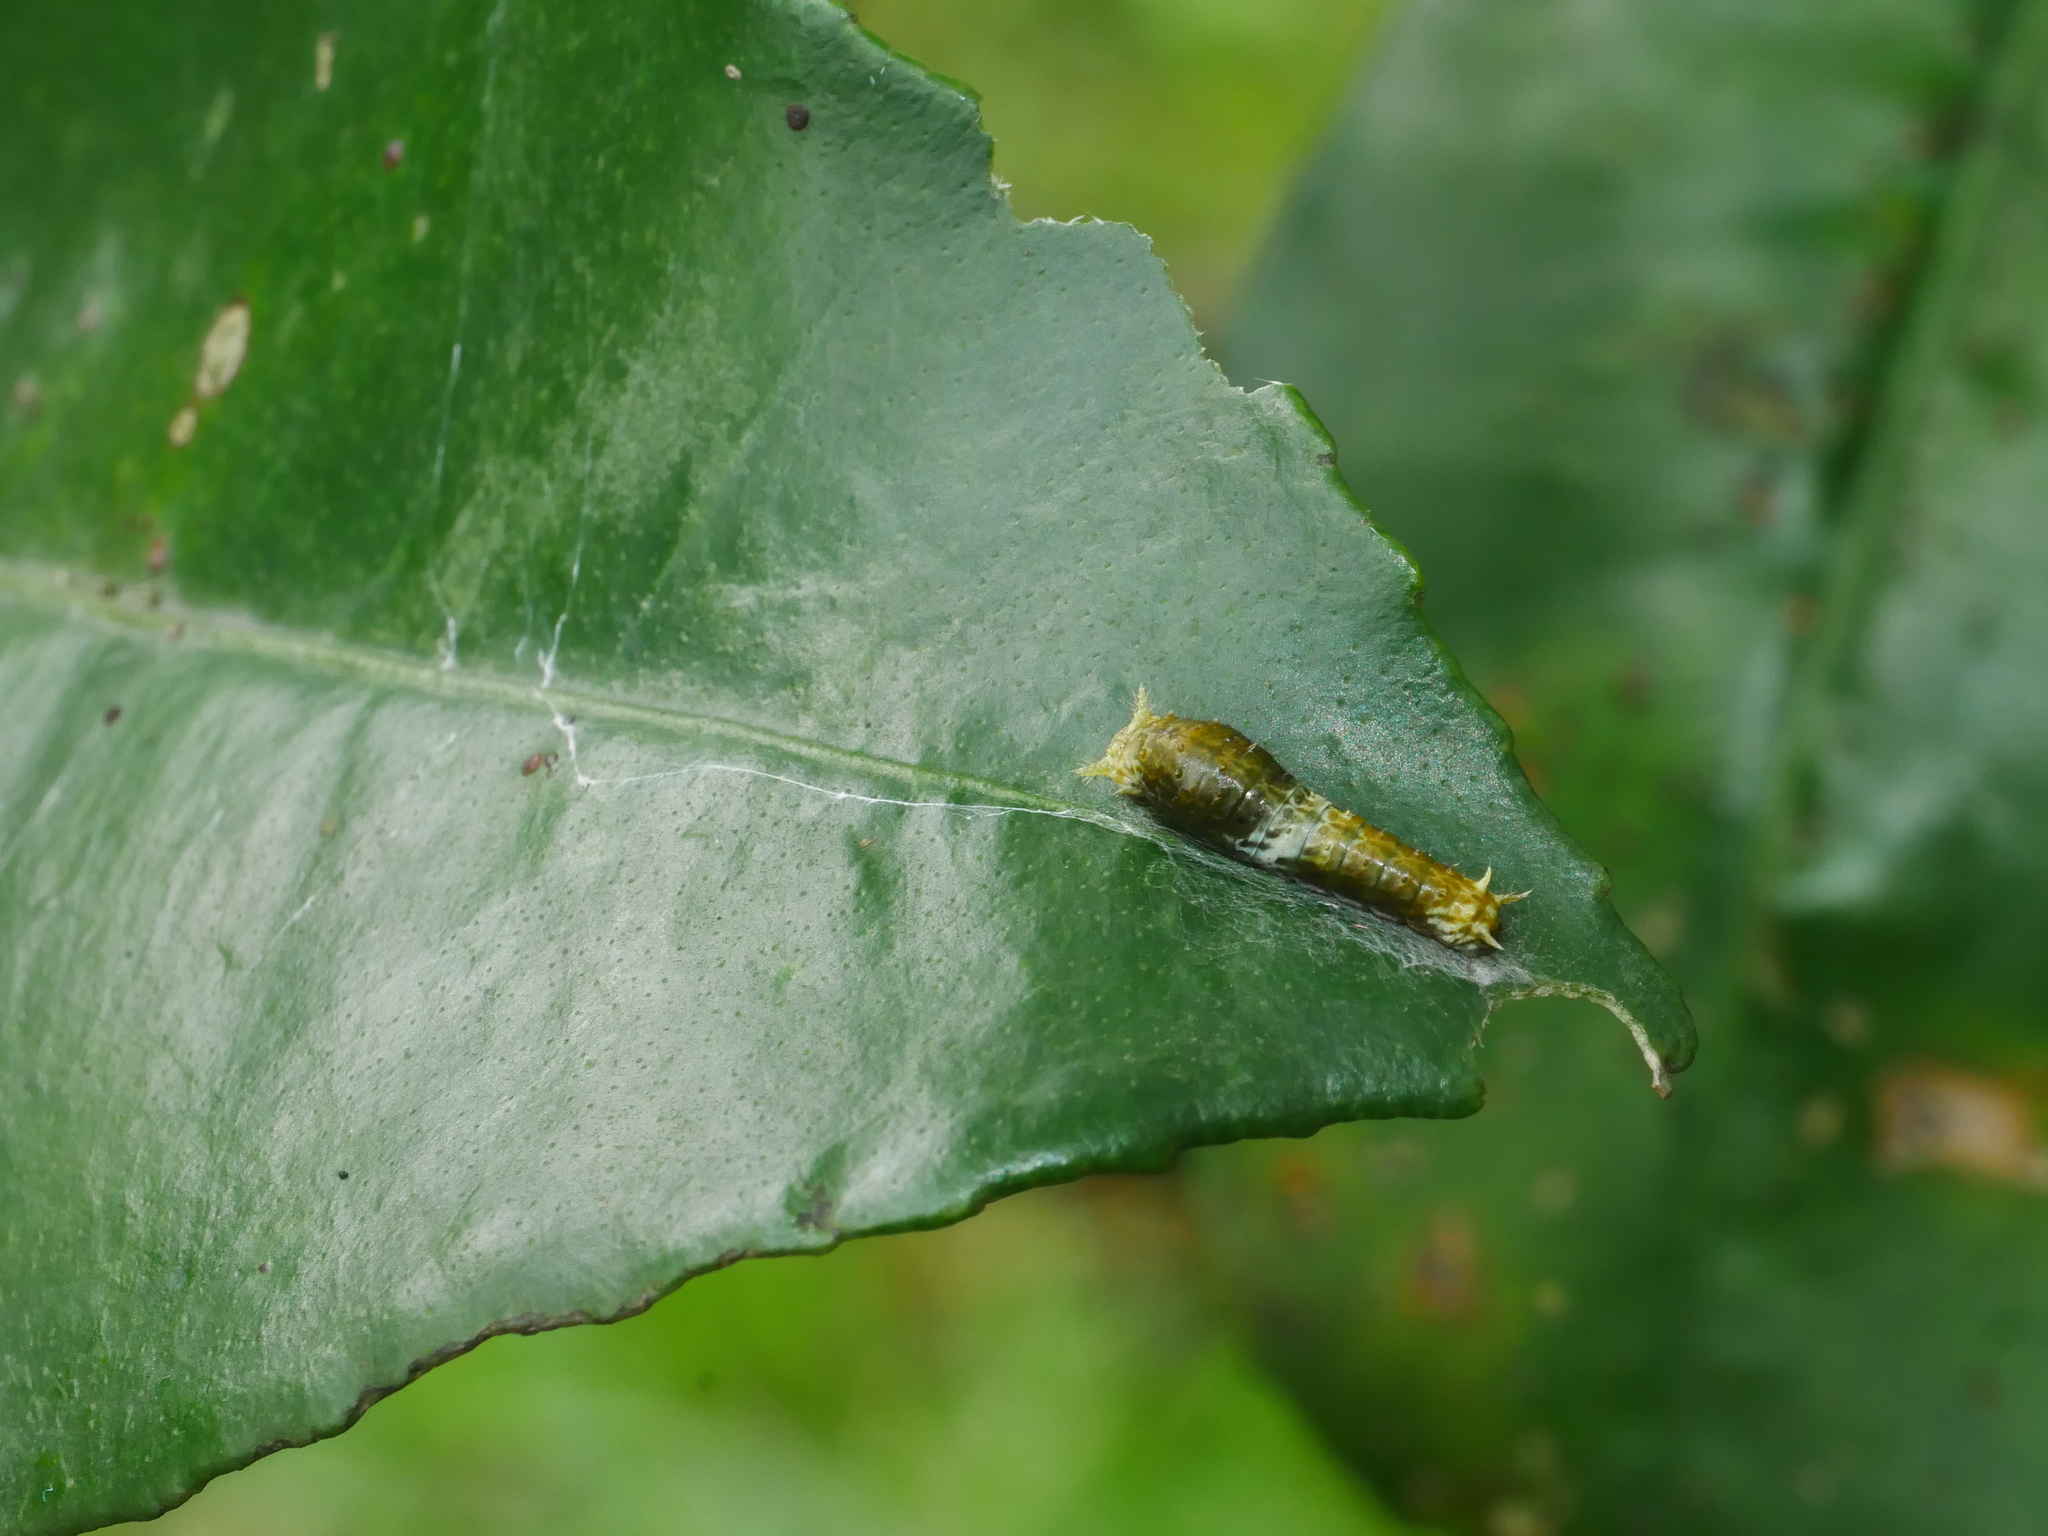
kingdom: Animalia
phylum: Arthropoda
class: Insecta
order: Lepidoptera
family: Papilionidae
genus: Papilio
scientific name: Papilio memnon
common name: Great mormon
